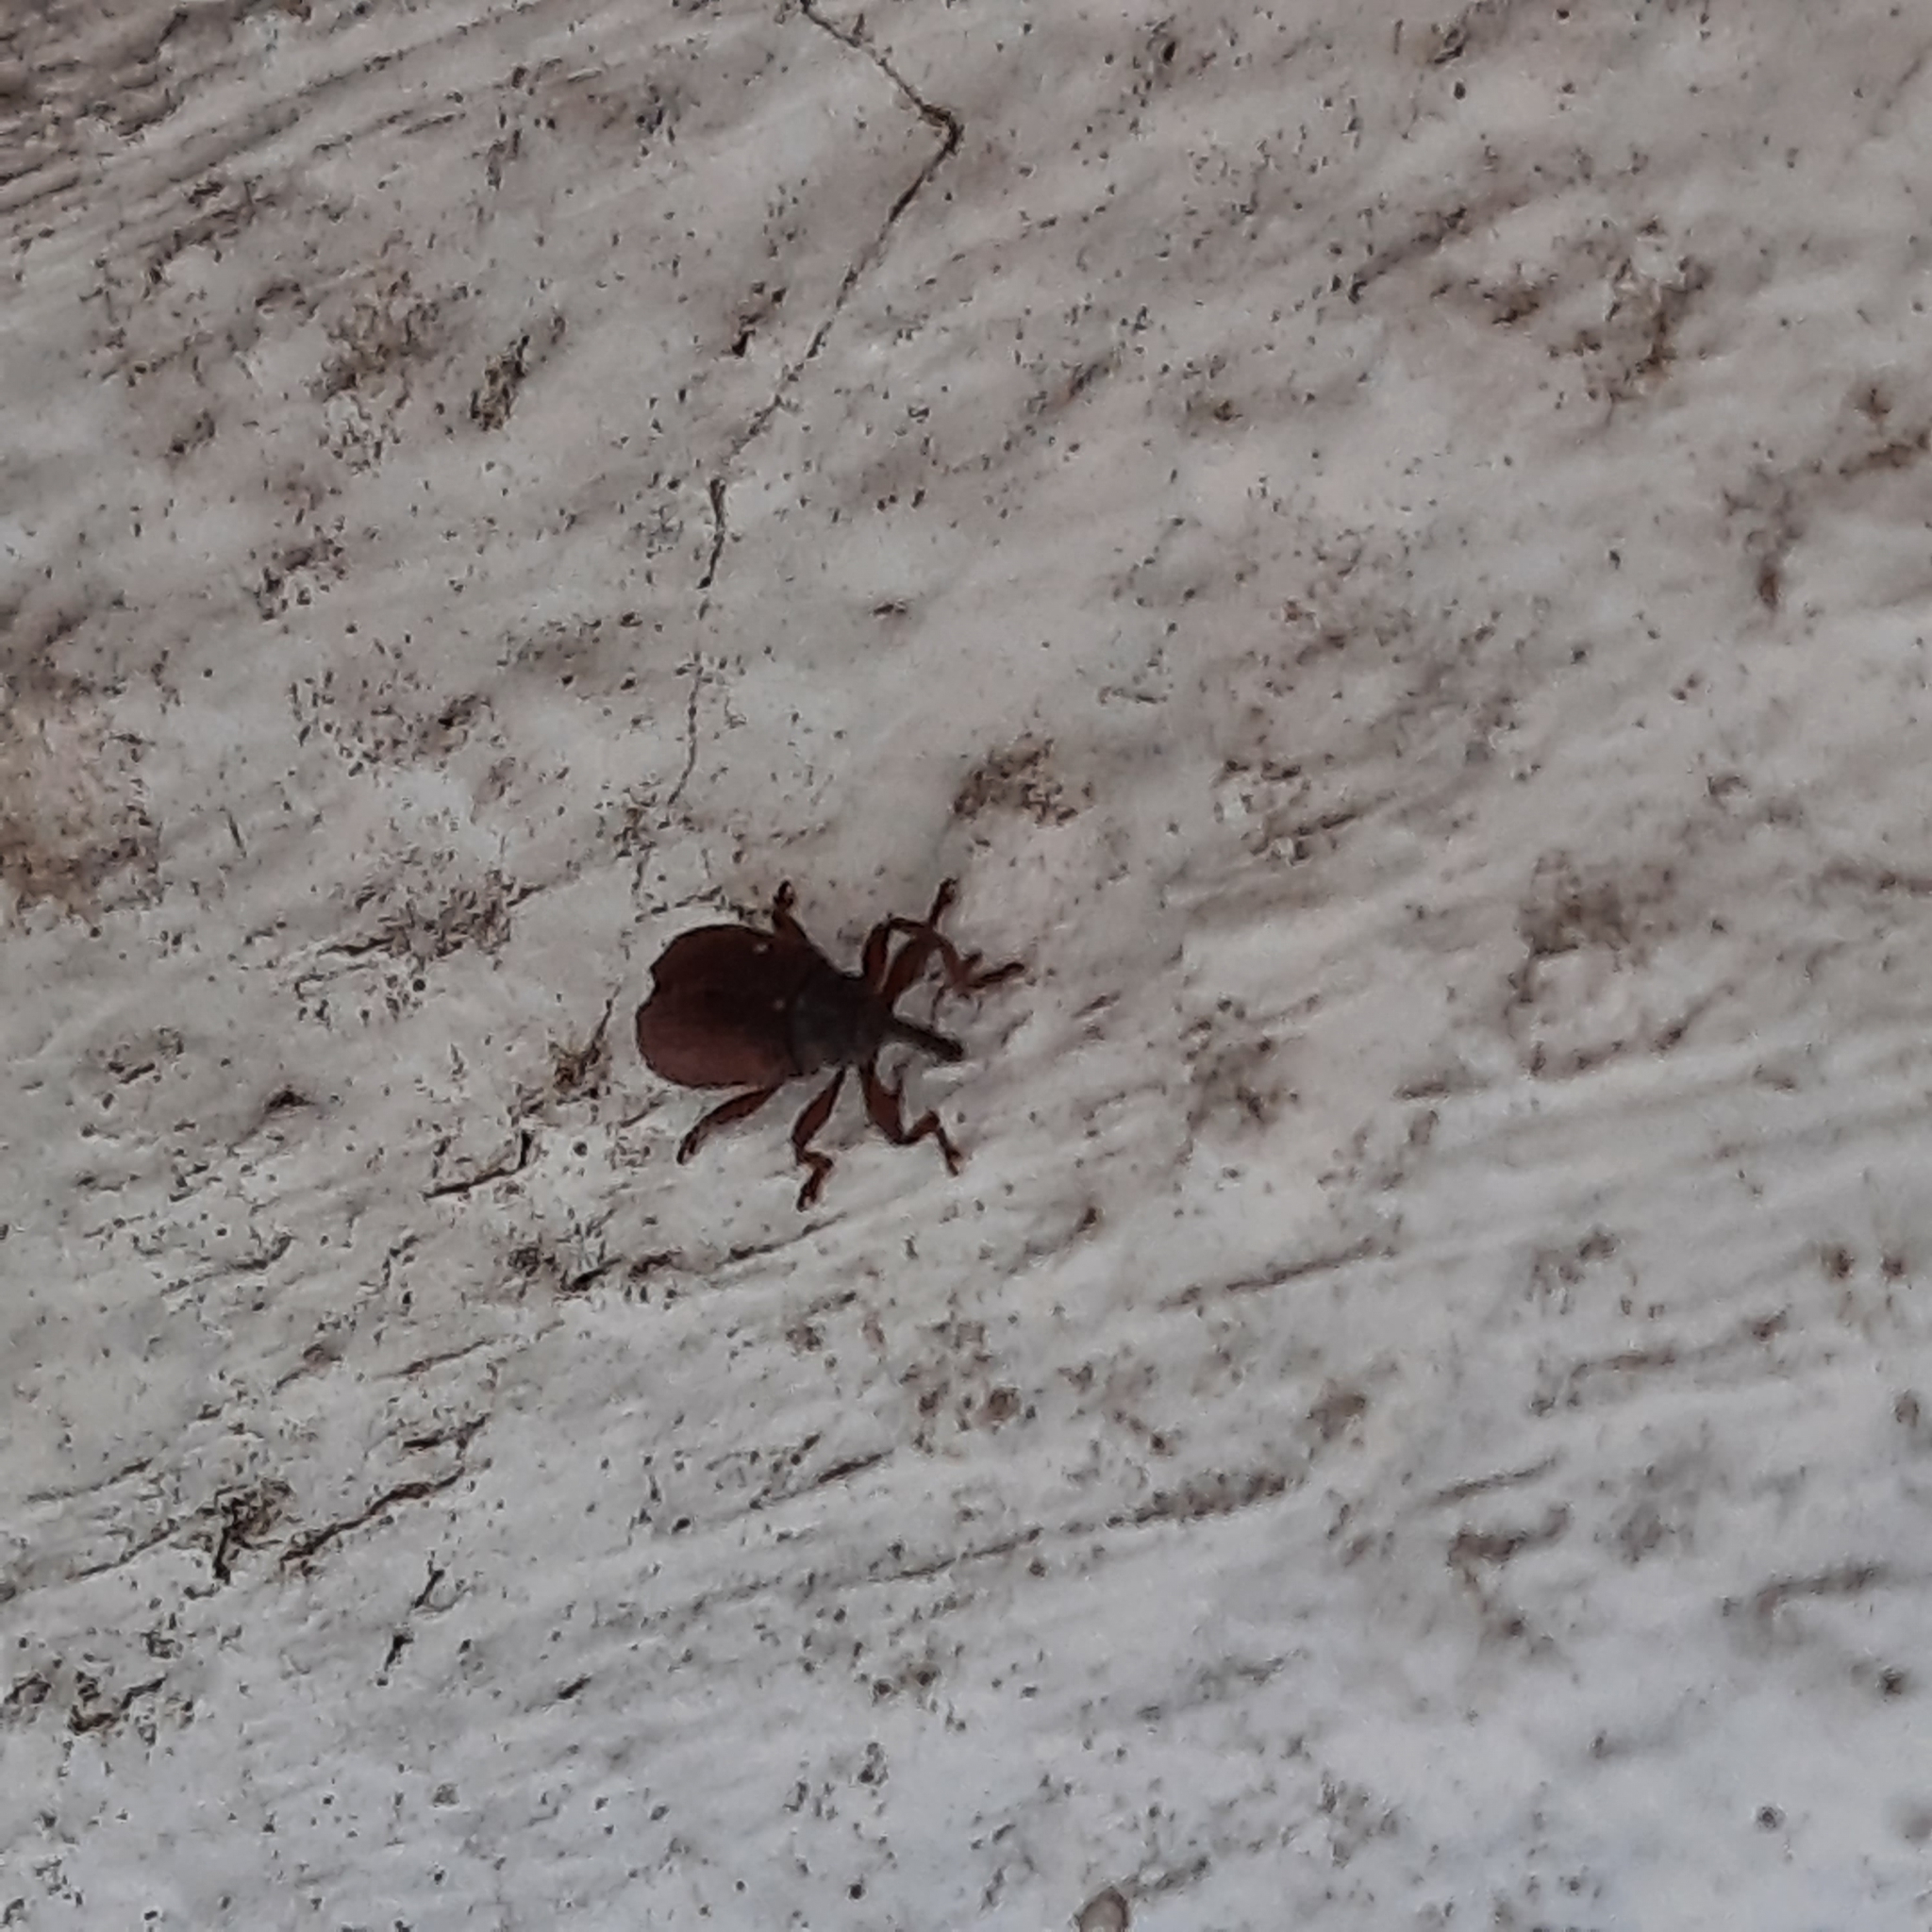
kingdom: Animalia
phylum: Arthropoda
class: Insecta
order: Coleoptera
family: Curculionidae
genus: Bradybatus
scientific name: Bradybatus kellneri
